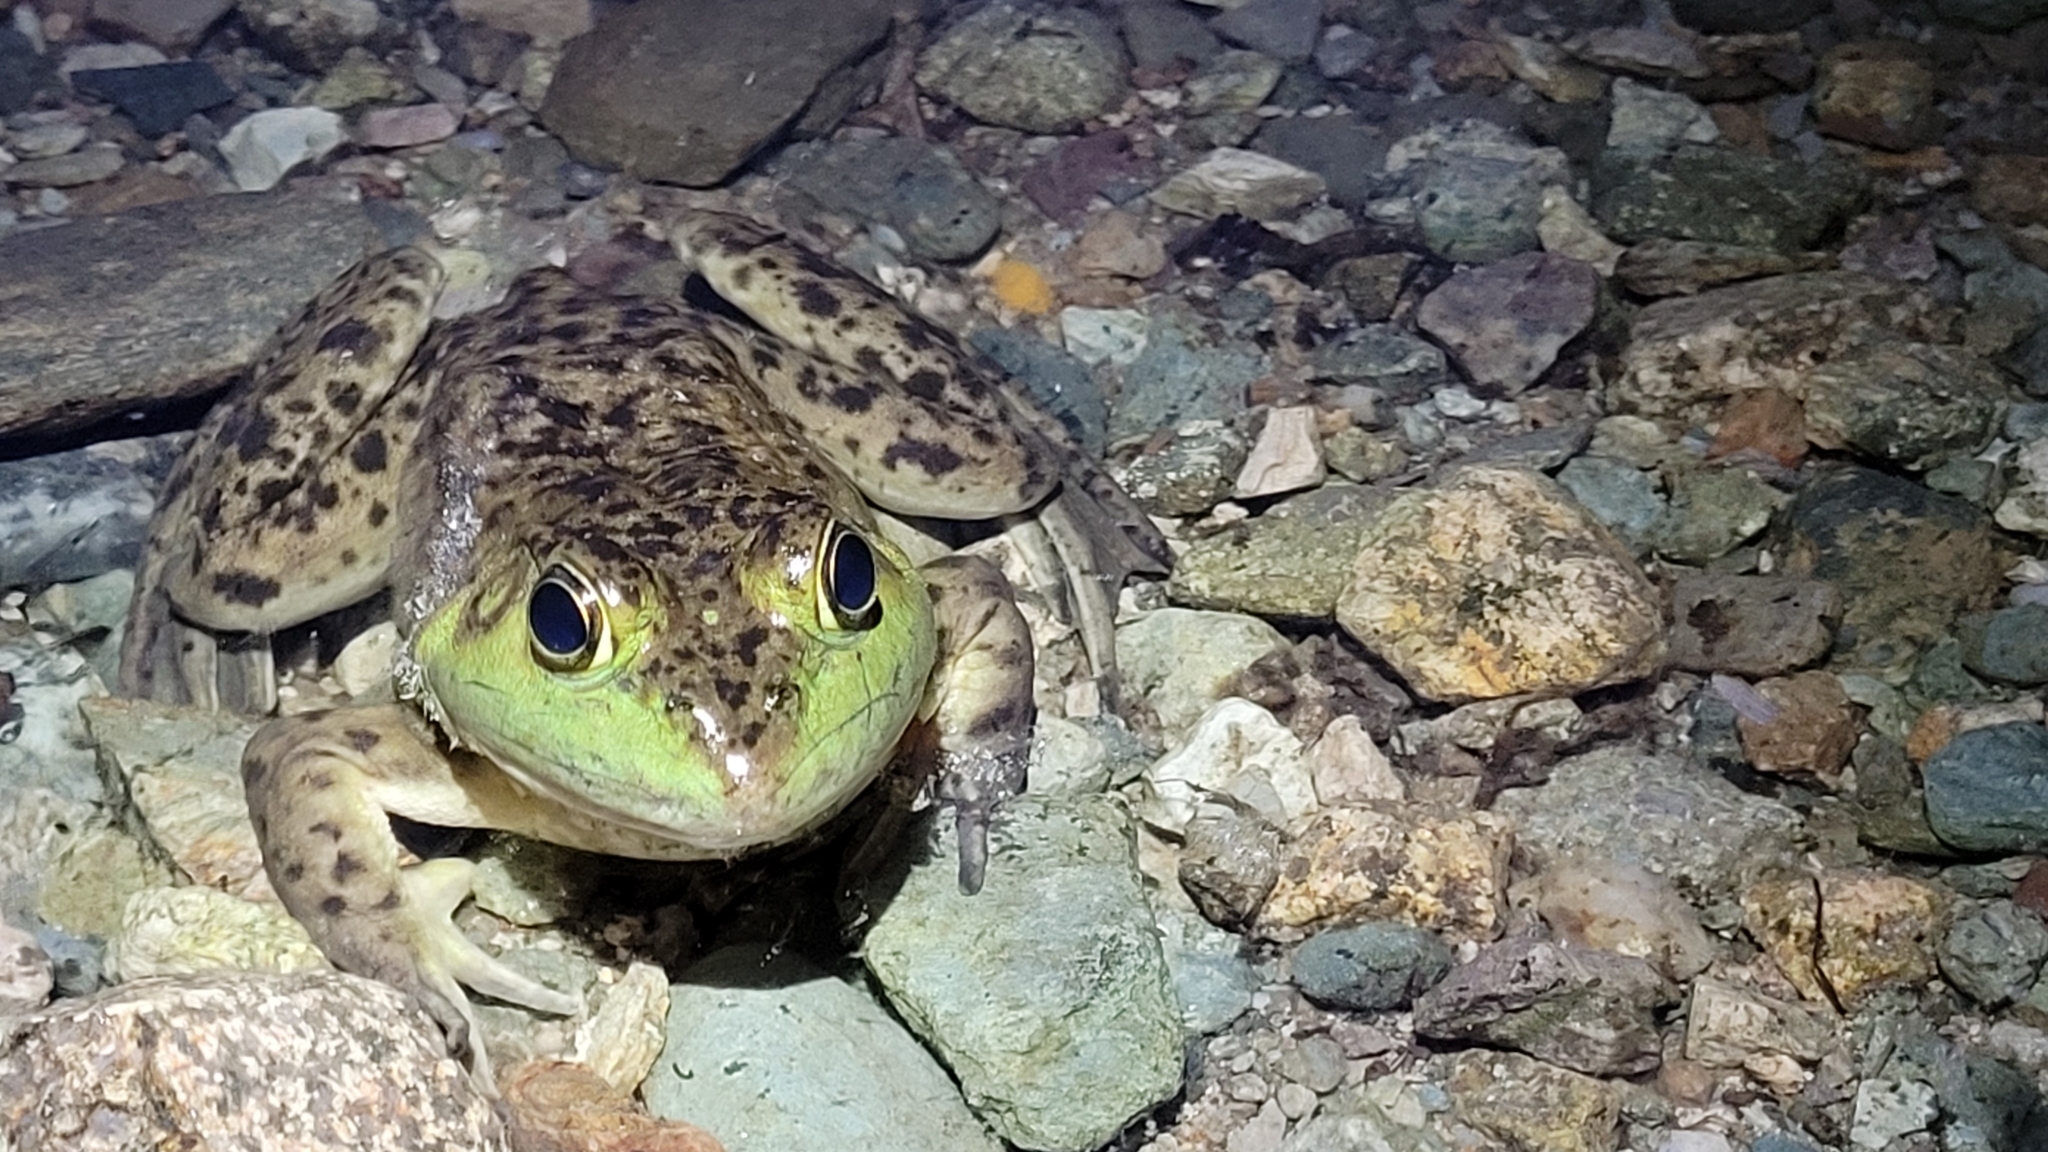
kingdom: Animalia
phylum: Chordata
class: Amphibia
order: Anura
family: Ranidae
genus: Lithobates
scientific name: Lithobates catesbeianus
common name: American bullfrog
